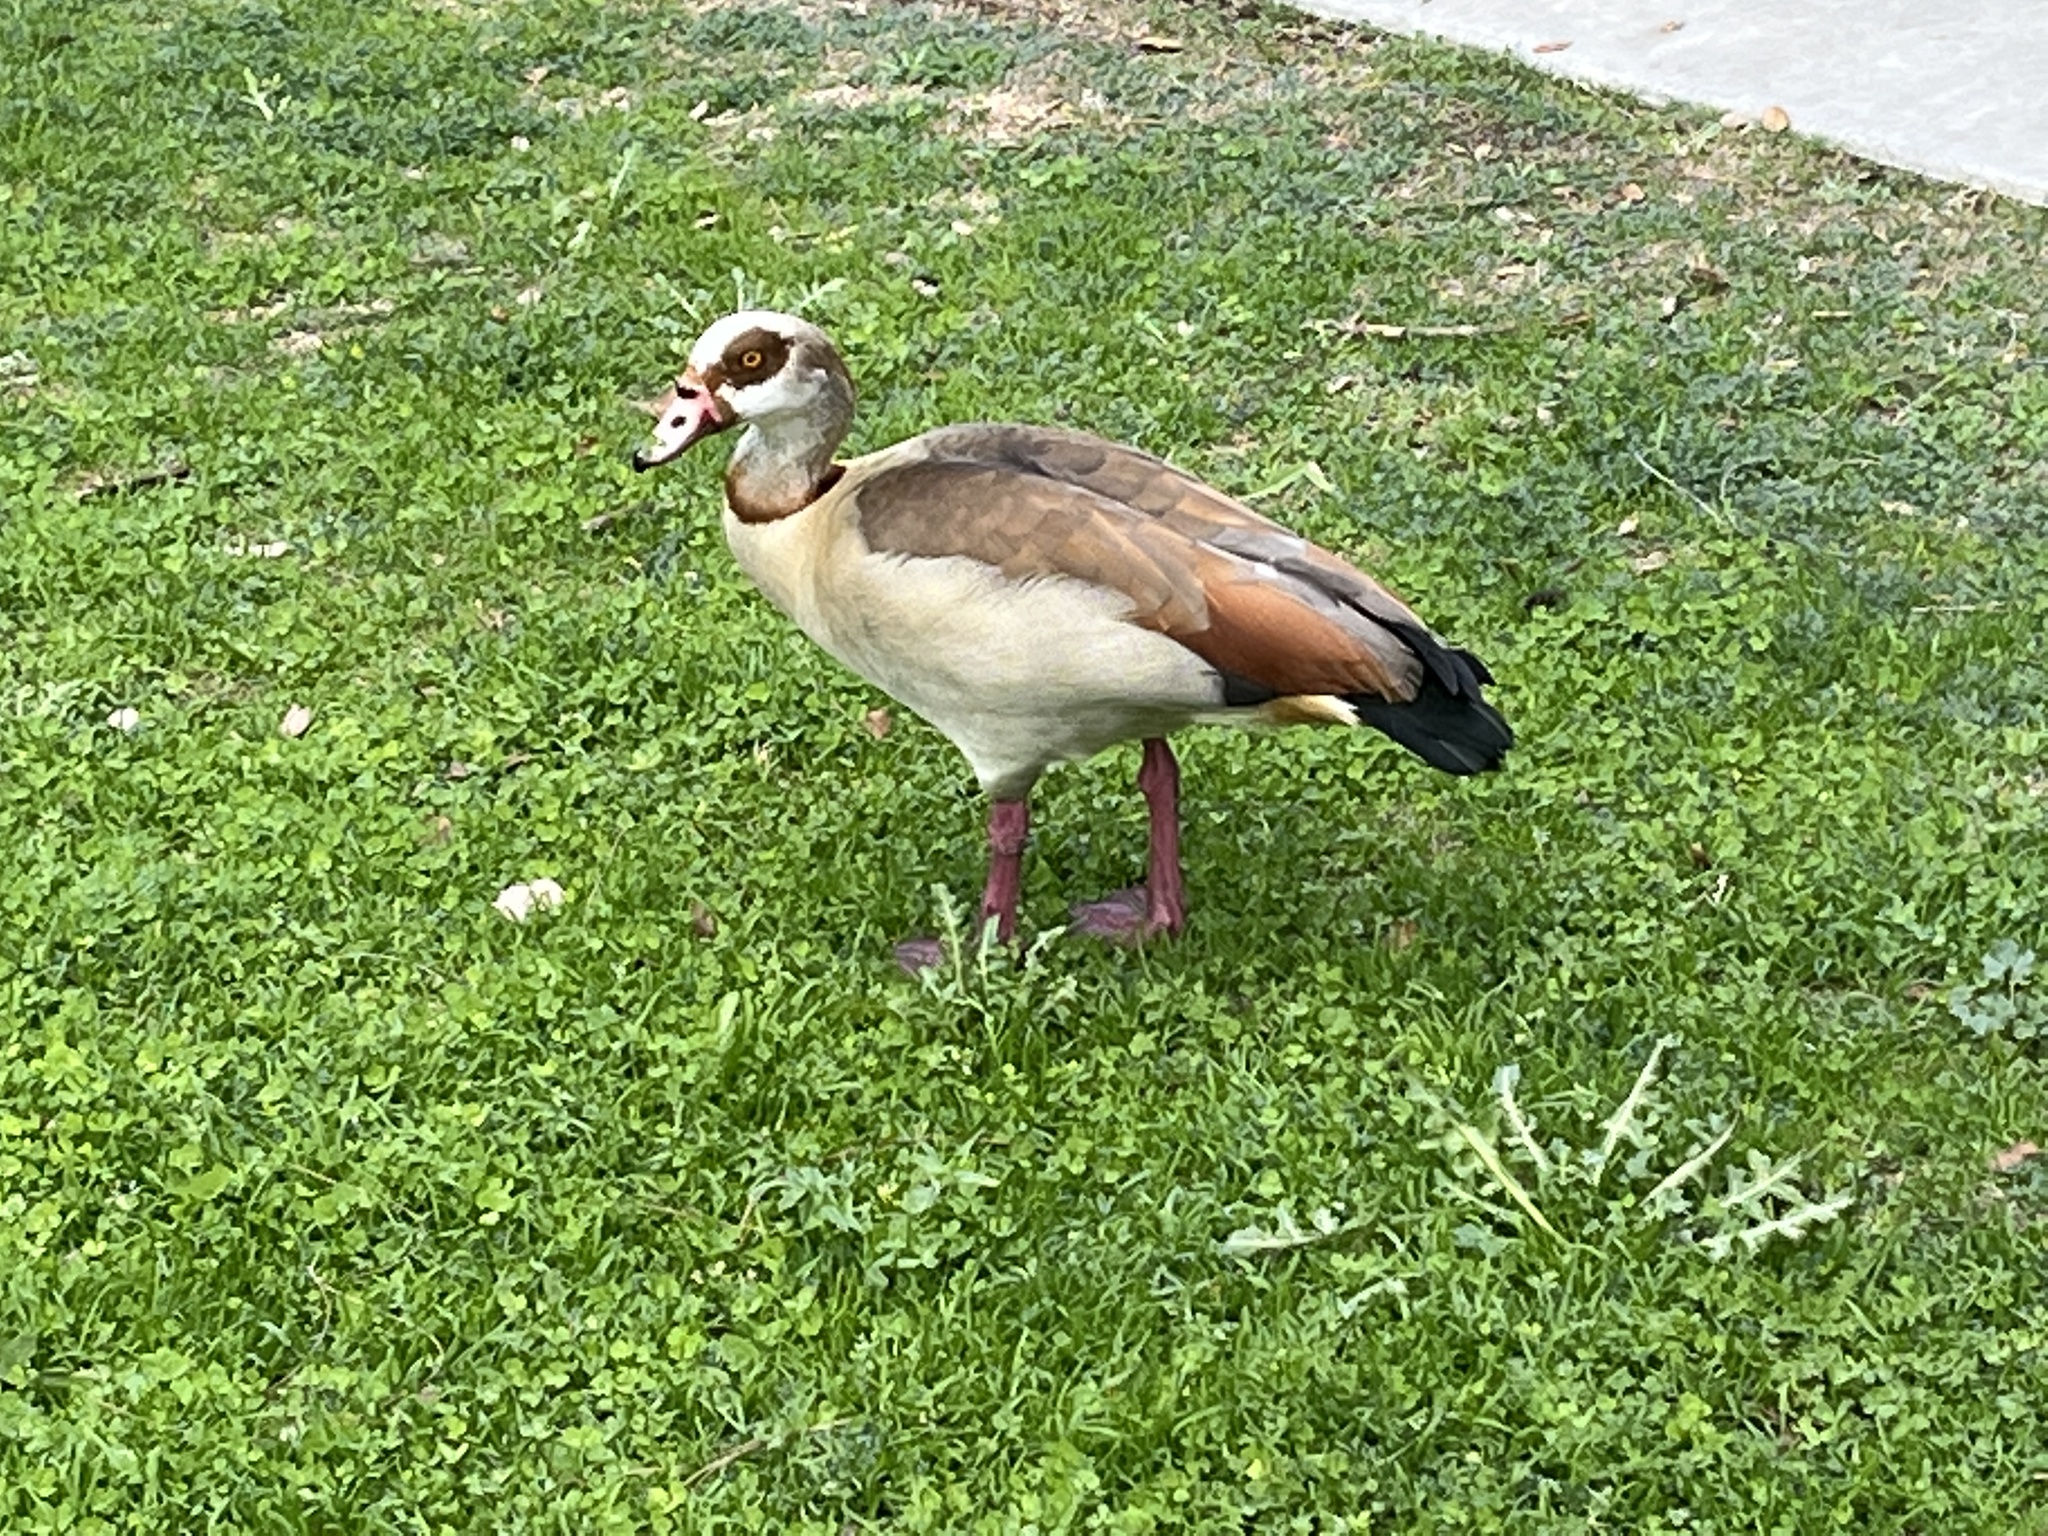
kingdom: Animalia
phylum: Chordata
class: Aves
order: Anseriformes
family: Anatidae
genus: Alopochen
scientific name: Alopochen aegyptiaca
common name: Egyptian goose
